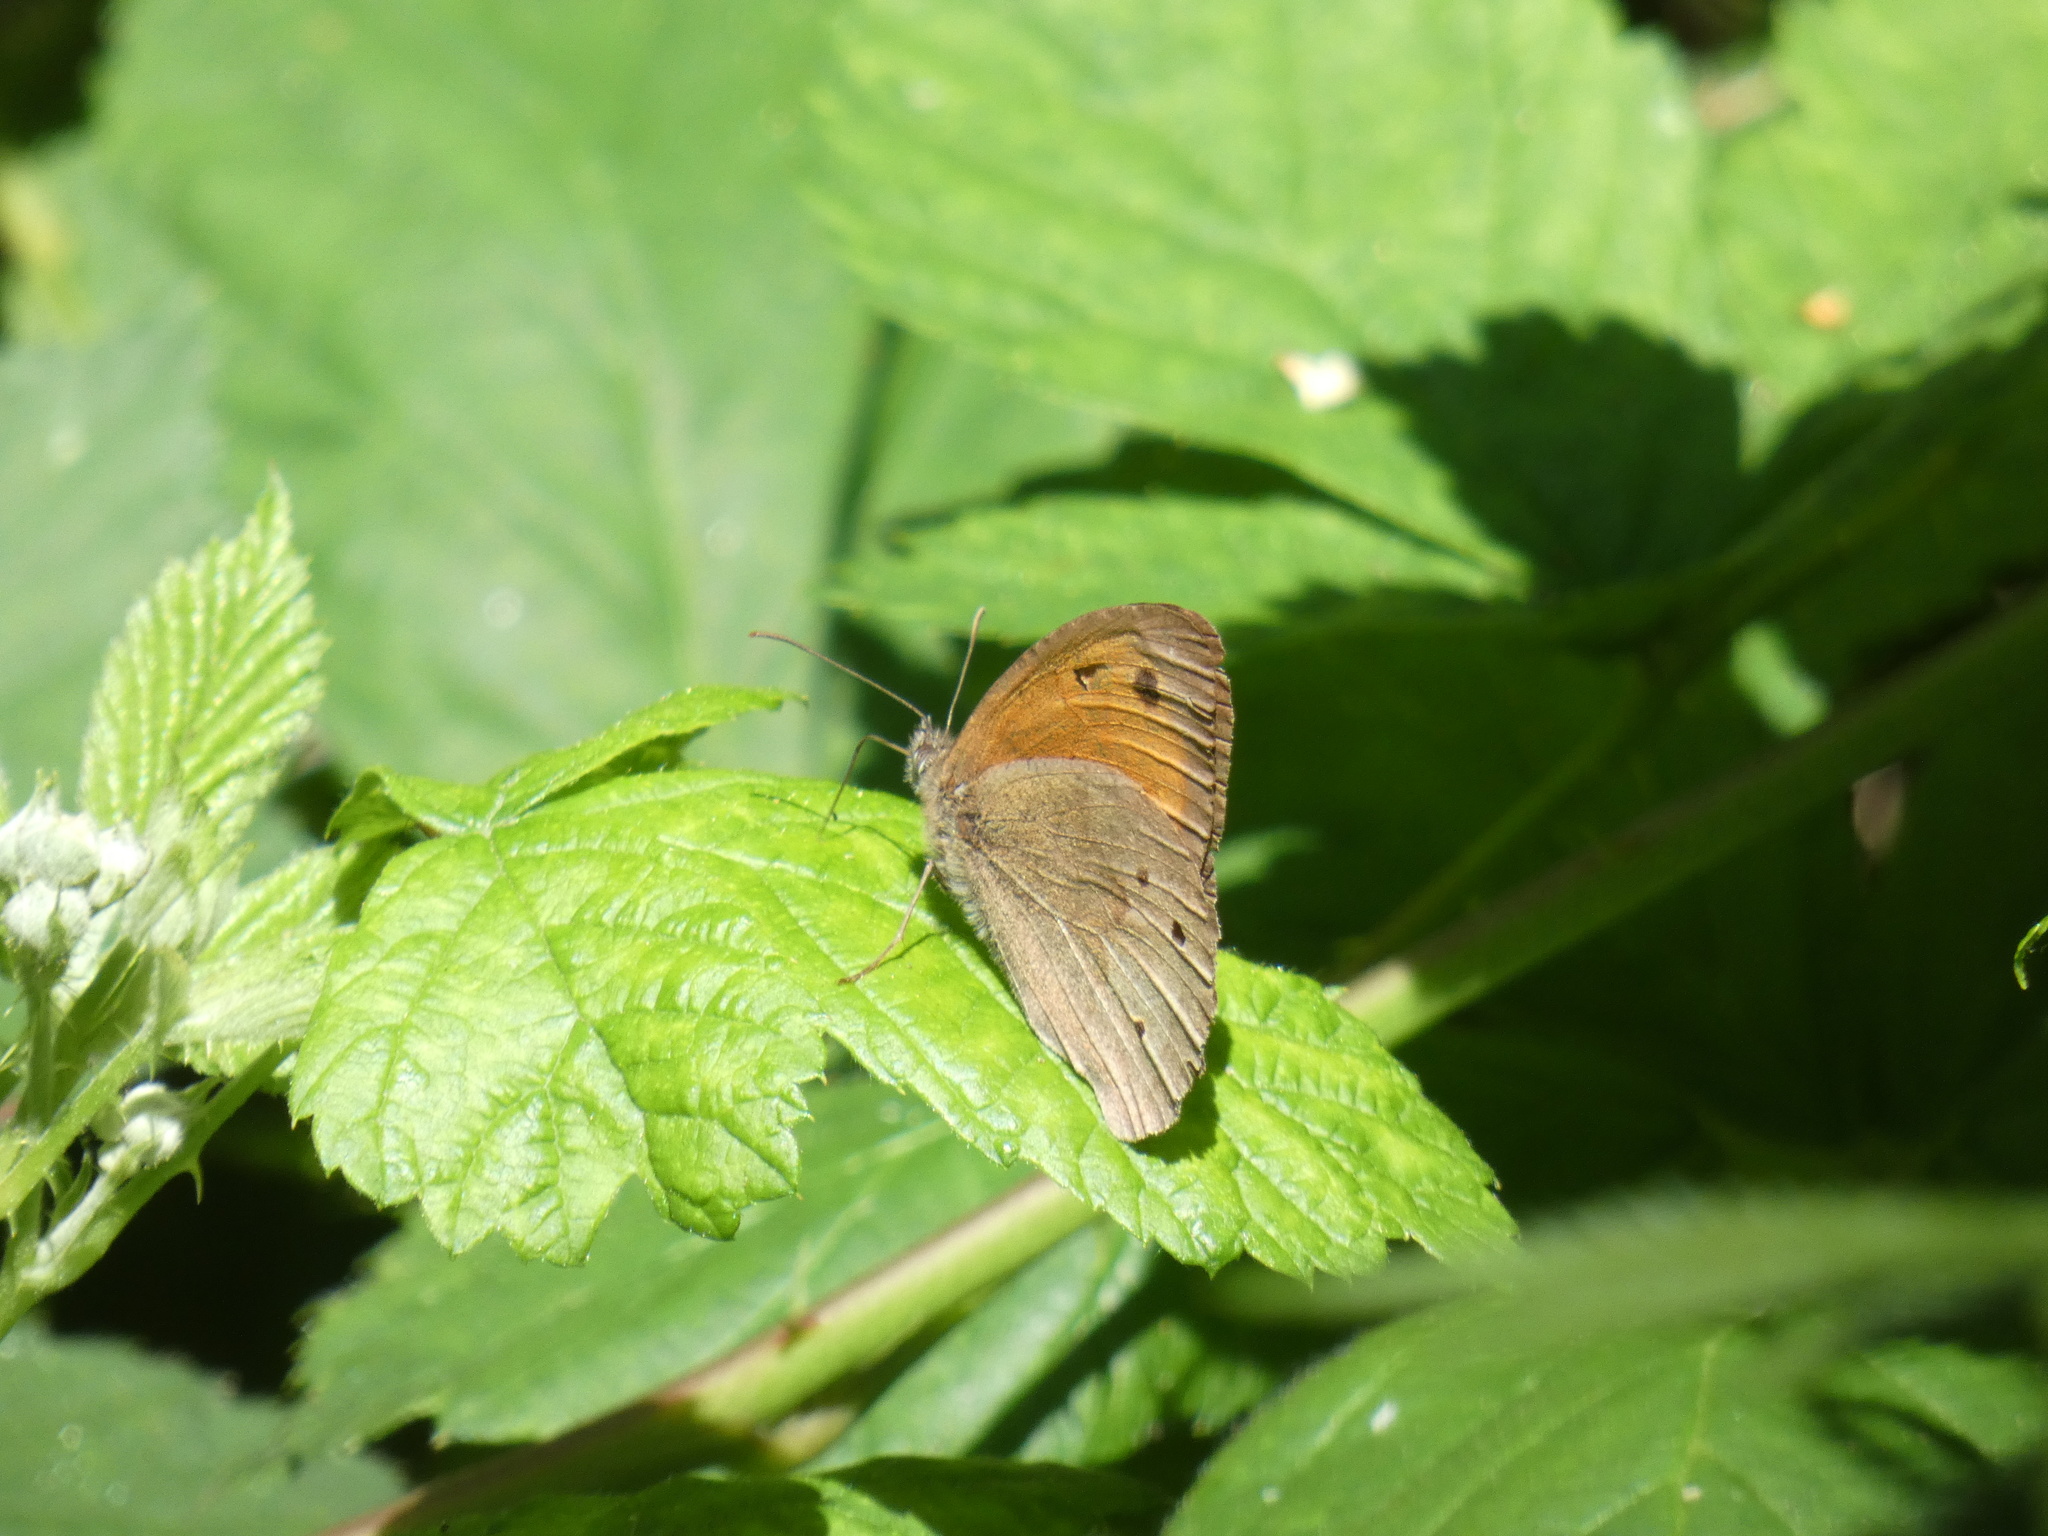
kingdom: Animalia
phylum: Arthropoda
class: Insecta
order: Lepidoptera
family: Nymphalidae
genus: Maniola
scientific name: Maniola jurtina
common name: Meadow brown
